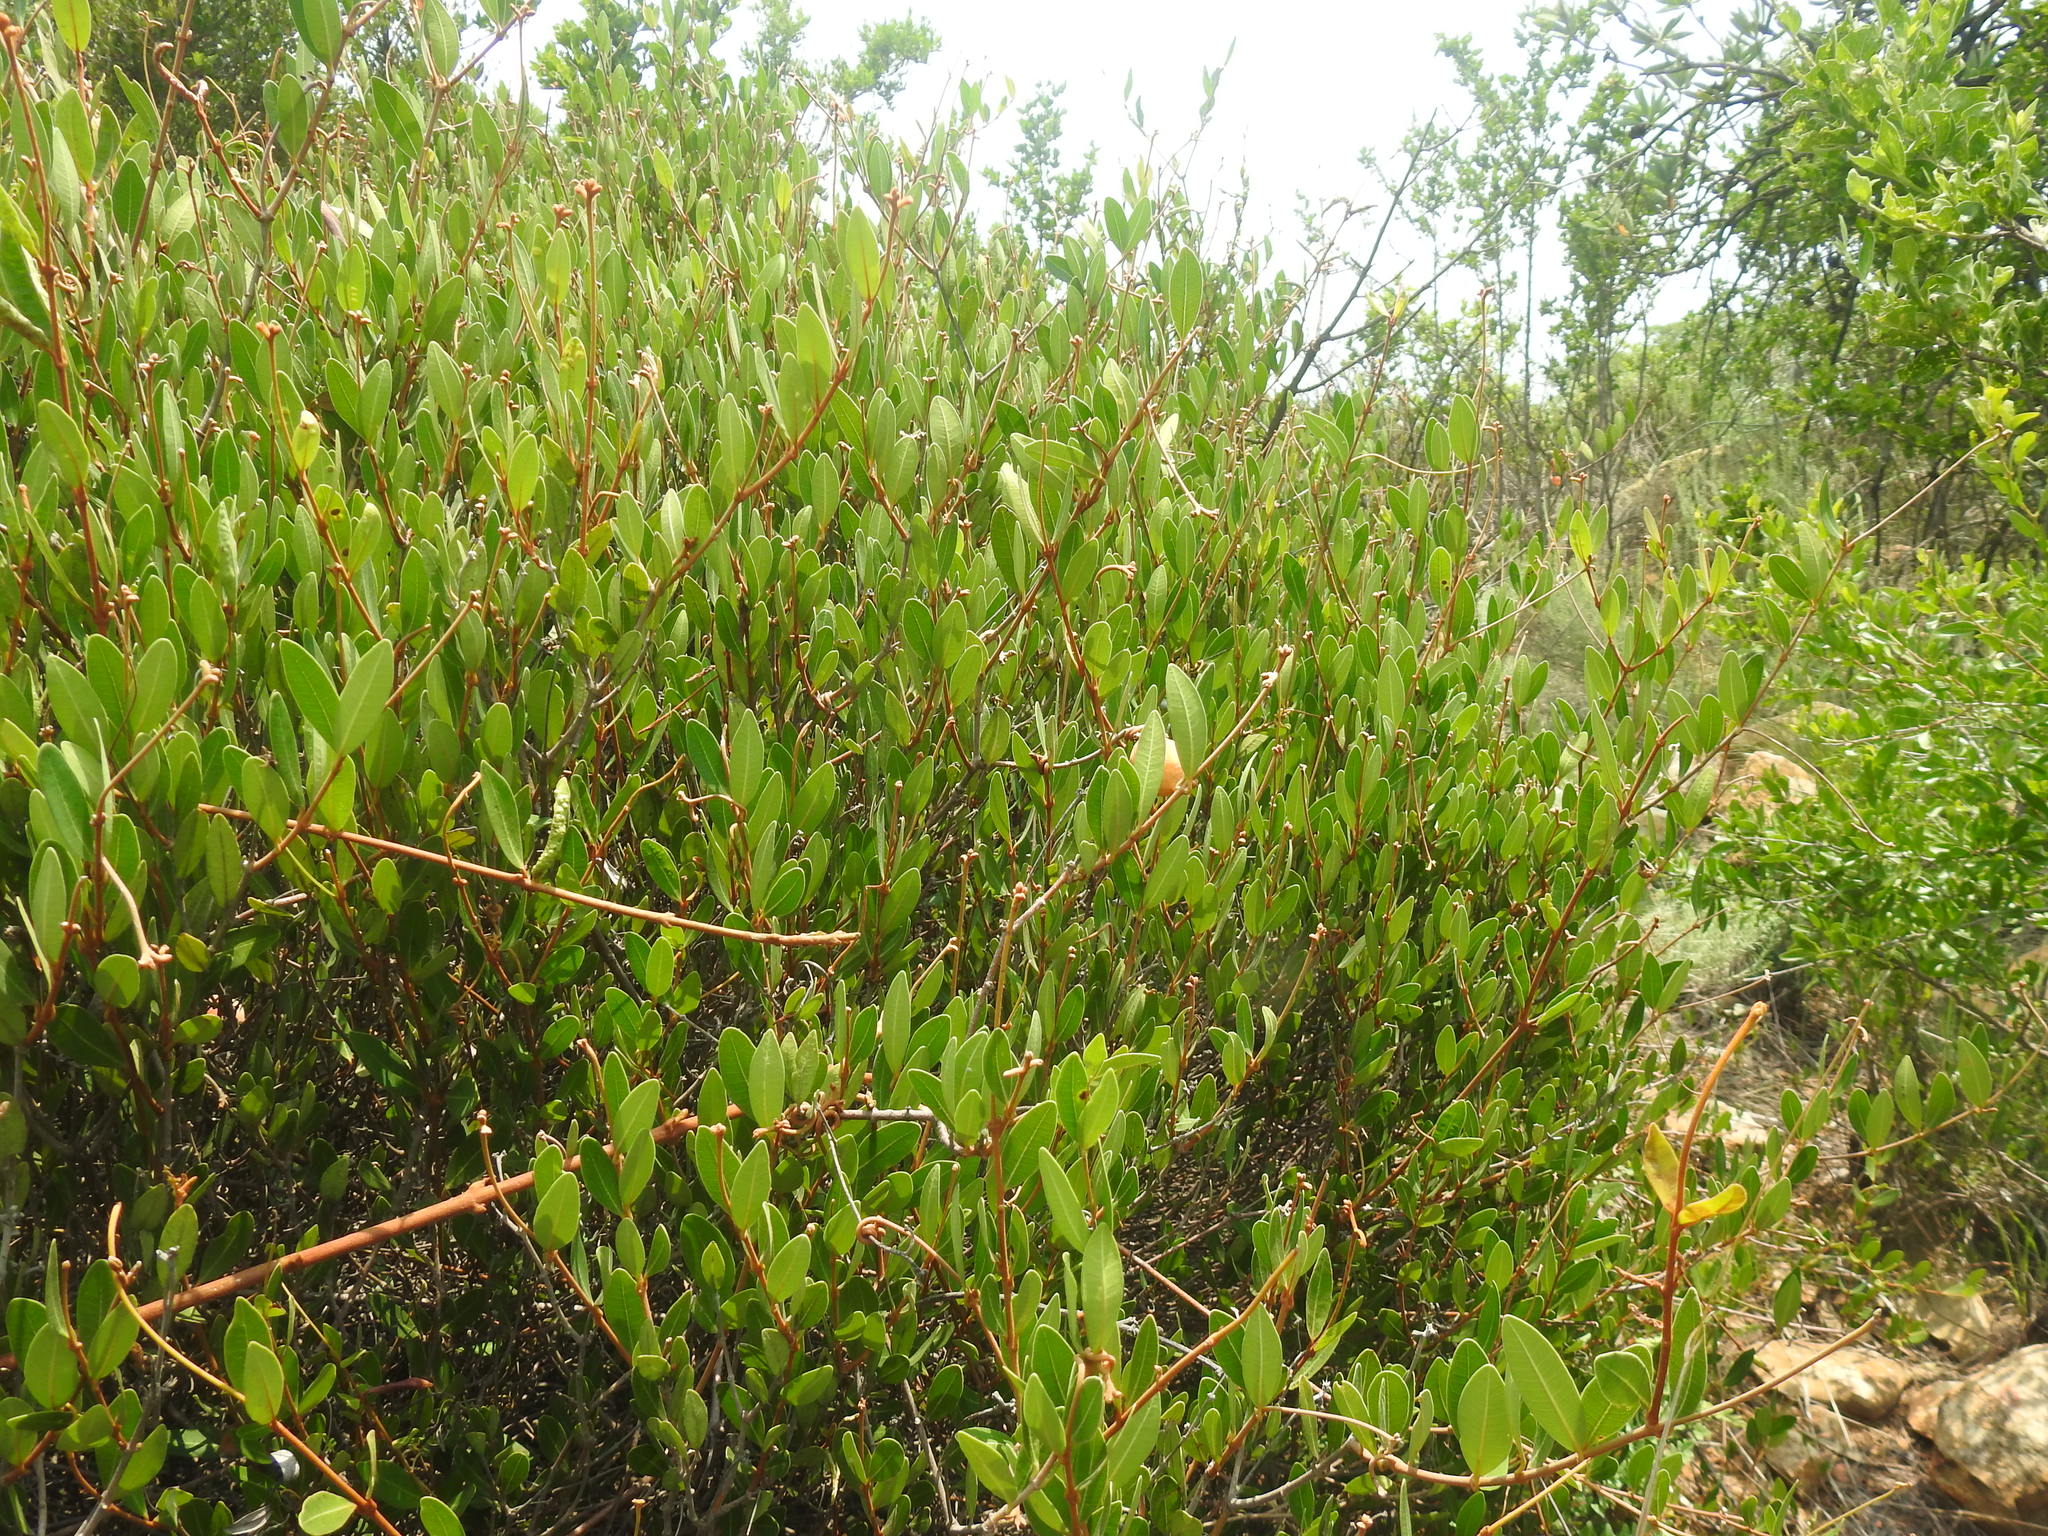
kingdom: Plantae
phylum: Tracheophyta
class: Magnoliopsida
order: Gentianales
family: Apocynaceae
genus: Ancylobothrys
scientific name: Ancylobothrys capensis
